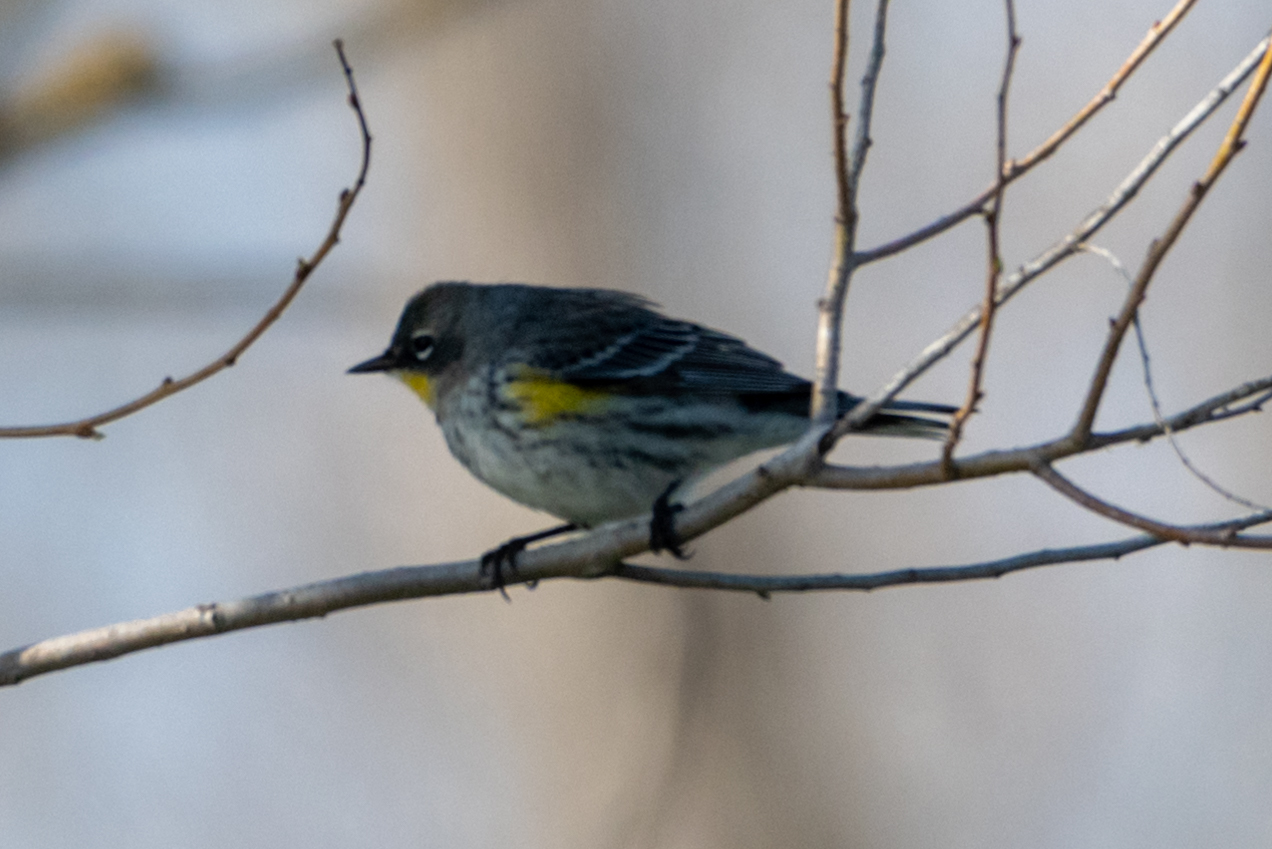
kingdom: Animalia
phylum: Chordata
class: Aves
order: Passeriformes
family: Parulidae
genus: Setophaga
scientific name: Setophaga coronata
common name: Myrtle warbler
